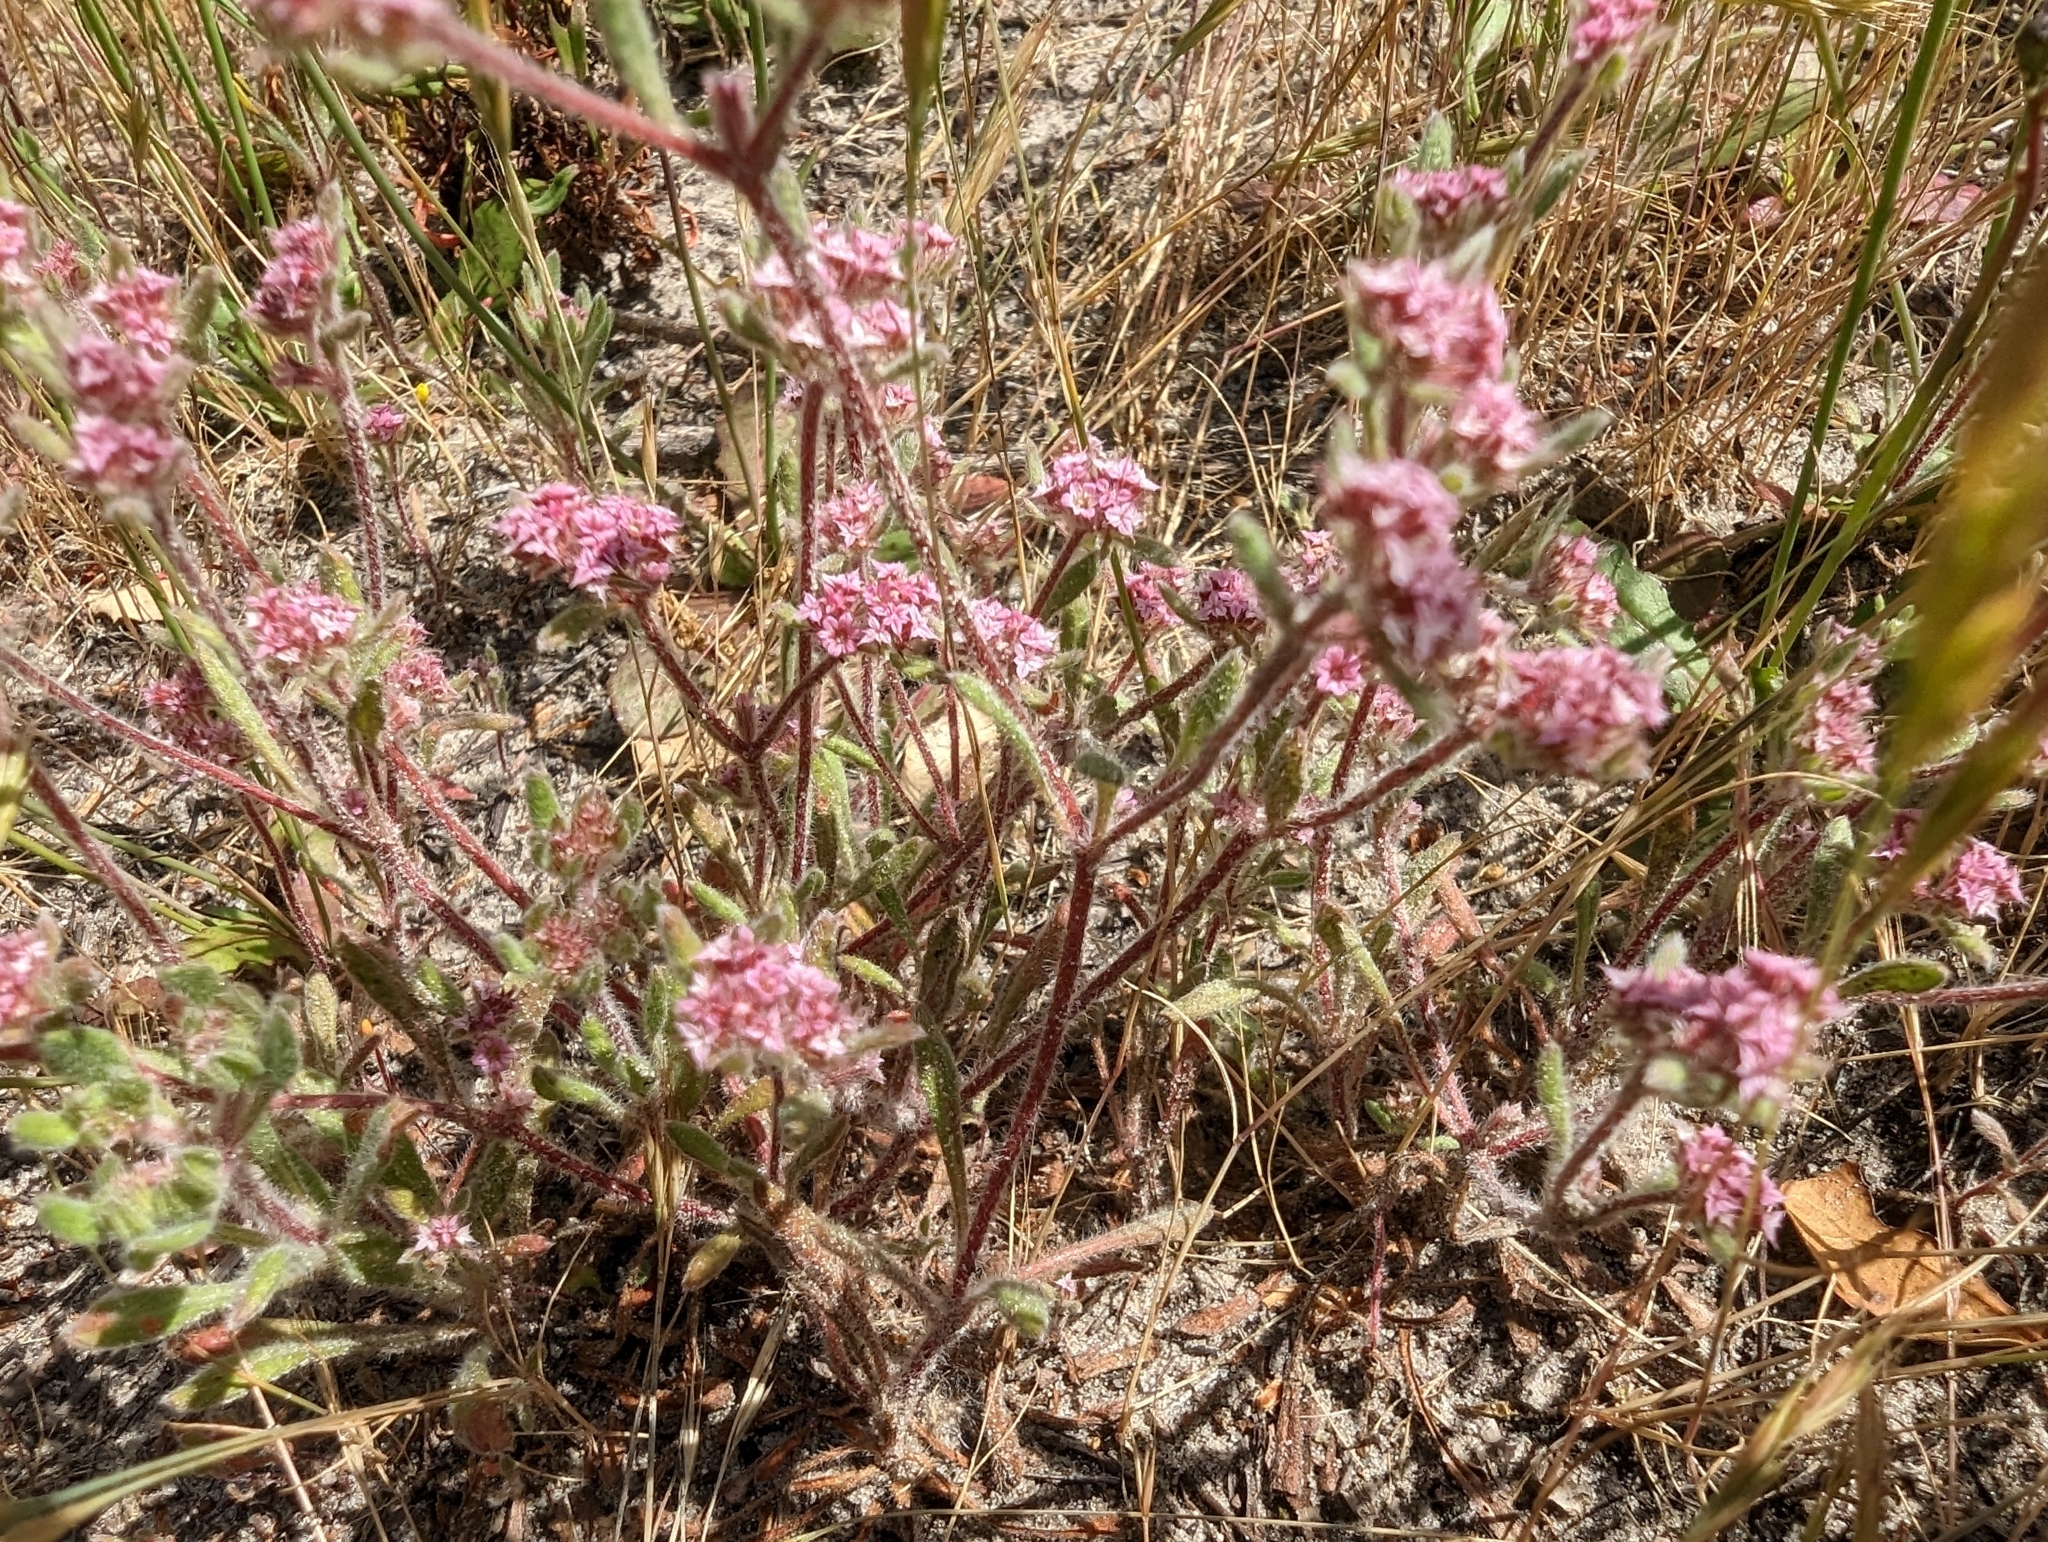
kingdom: Plantae
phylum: Tracheophyta
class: Magnoliopsida
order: Caryophyllales
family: Polygonaceae
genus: Chorizanthe
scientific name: Chorizanthe pungens
